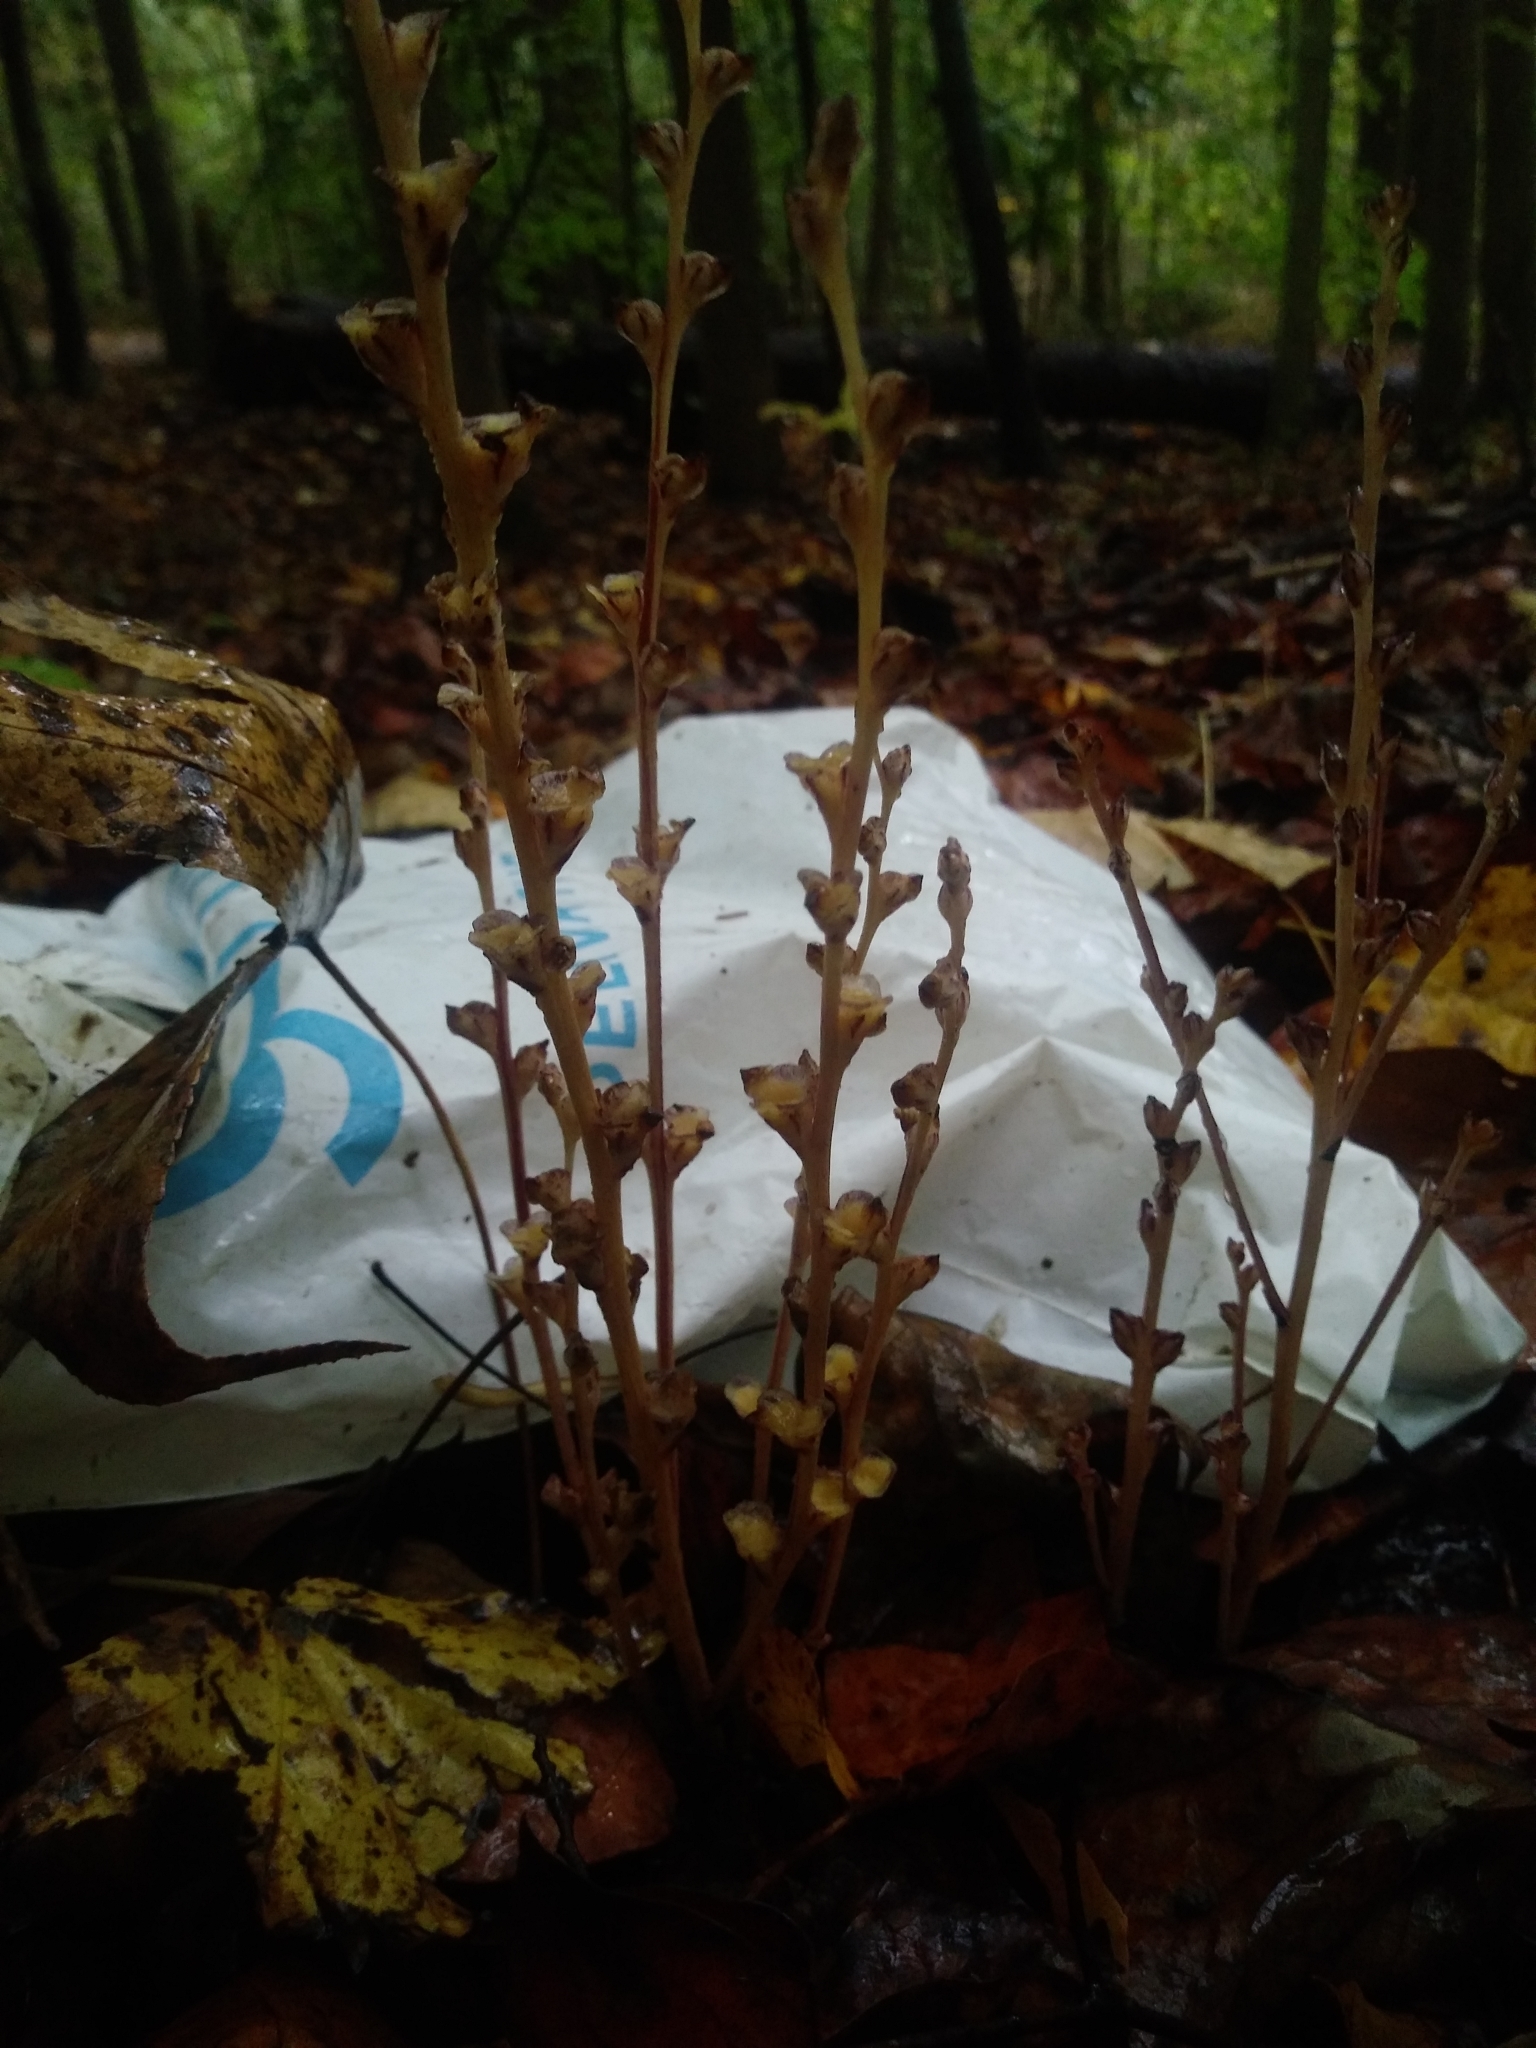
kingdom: Plantae
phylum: Tracheophyta
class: Magnoliopsida
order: Lamiales
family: Orobanchaceae
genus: Epifagus
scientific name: Epifagus virginiana
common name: Beechdrops
